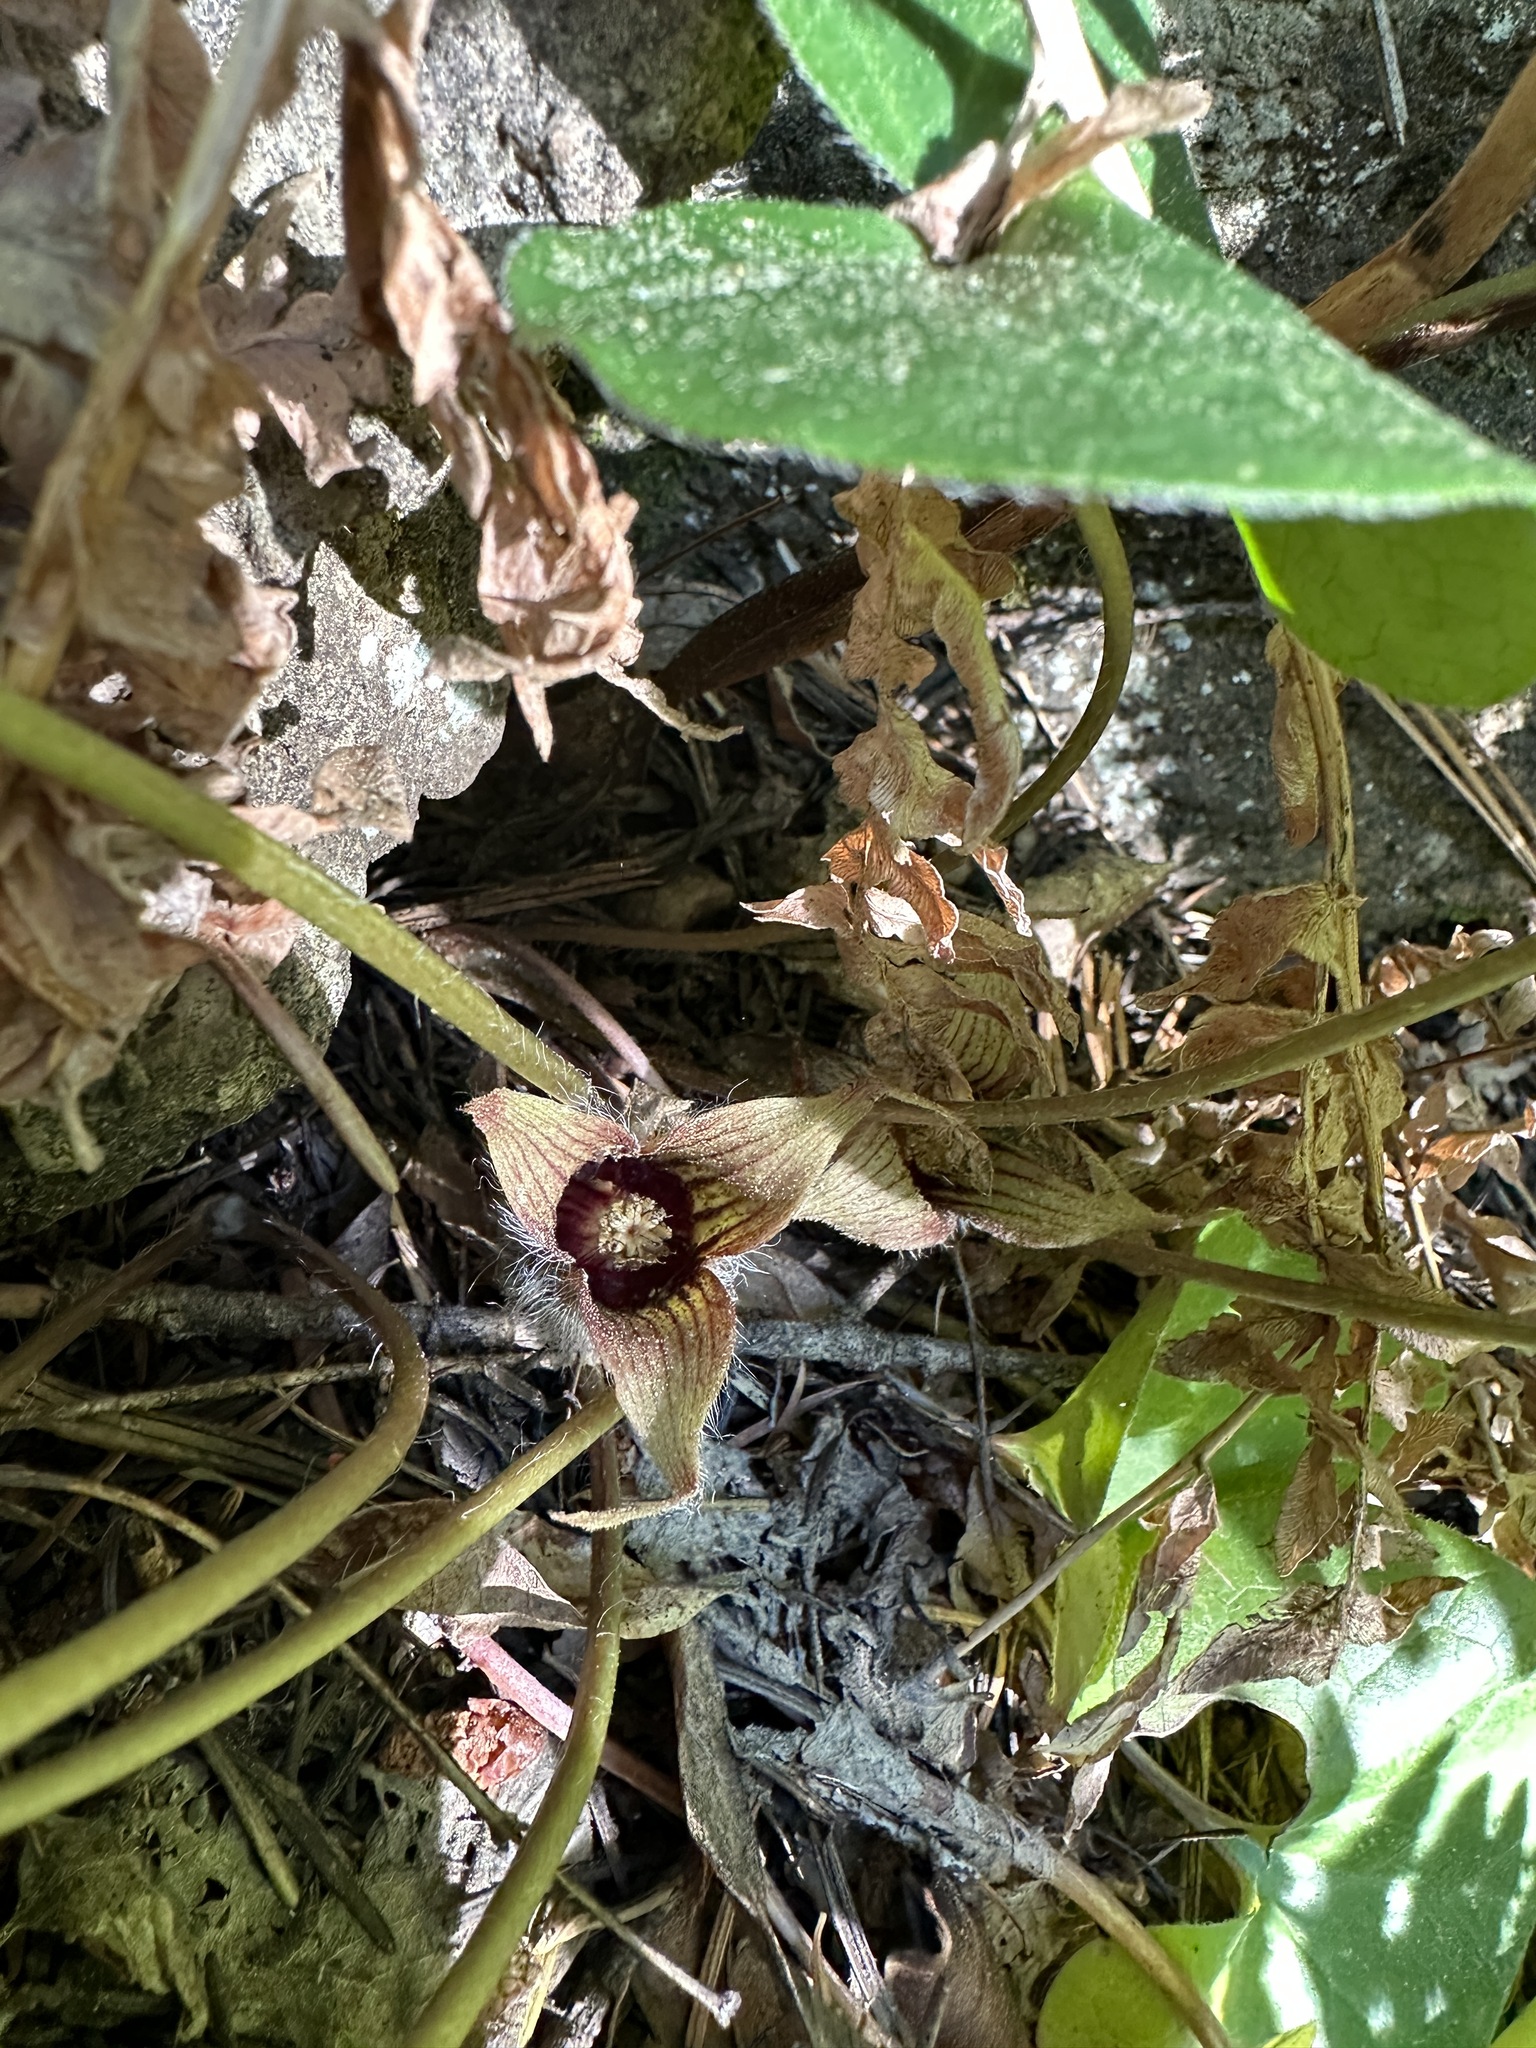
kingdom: Plantae
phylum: Tracheophyta
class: Magnoliopsida
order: Piperales
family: Aristolochiaceae
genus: Asarum
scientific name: Asarum hartwegii
